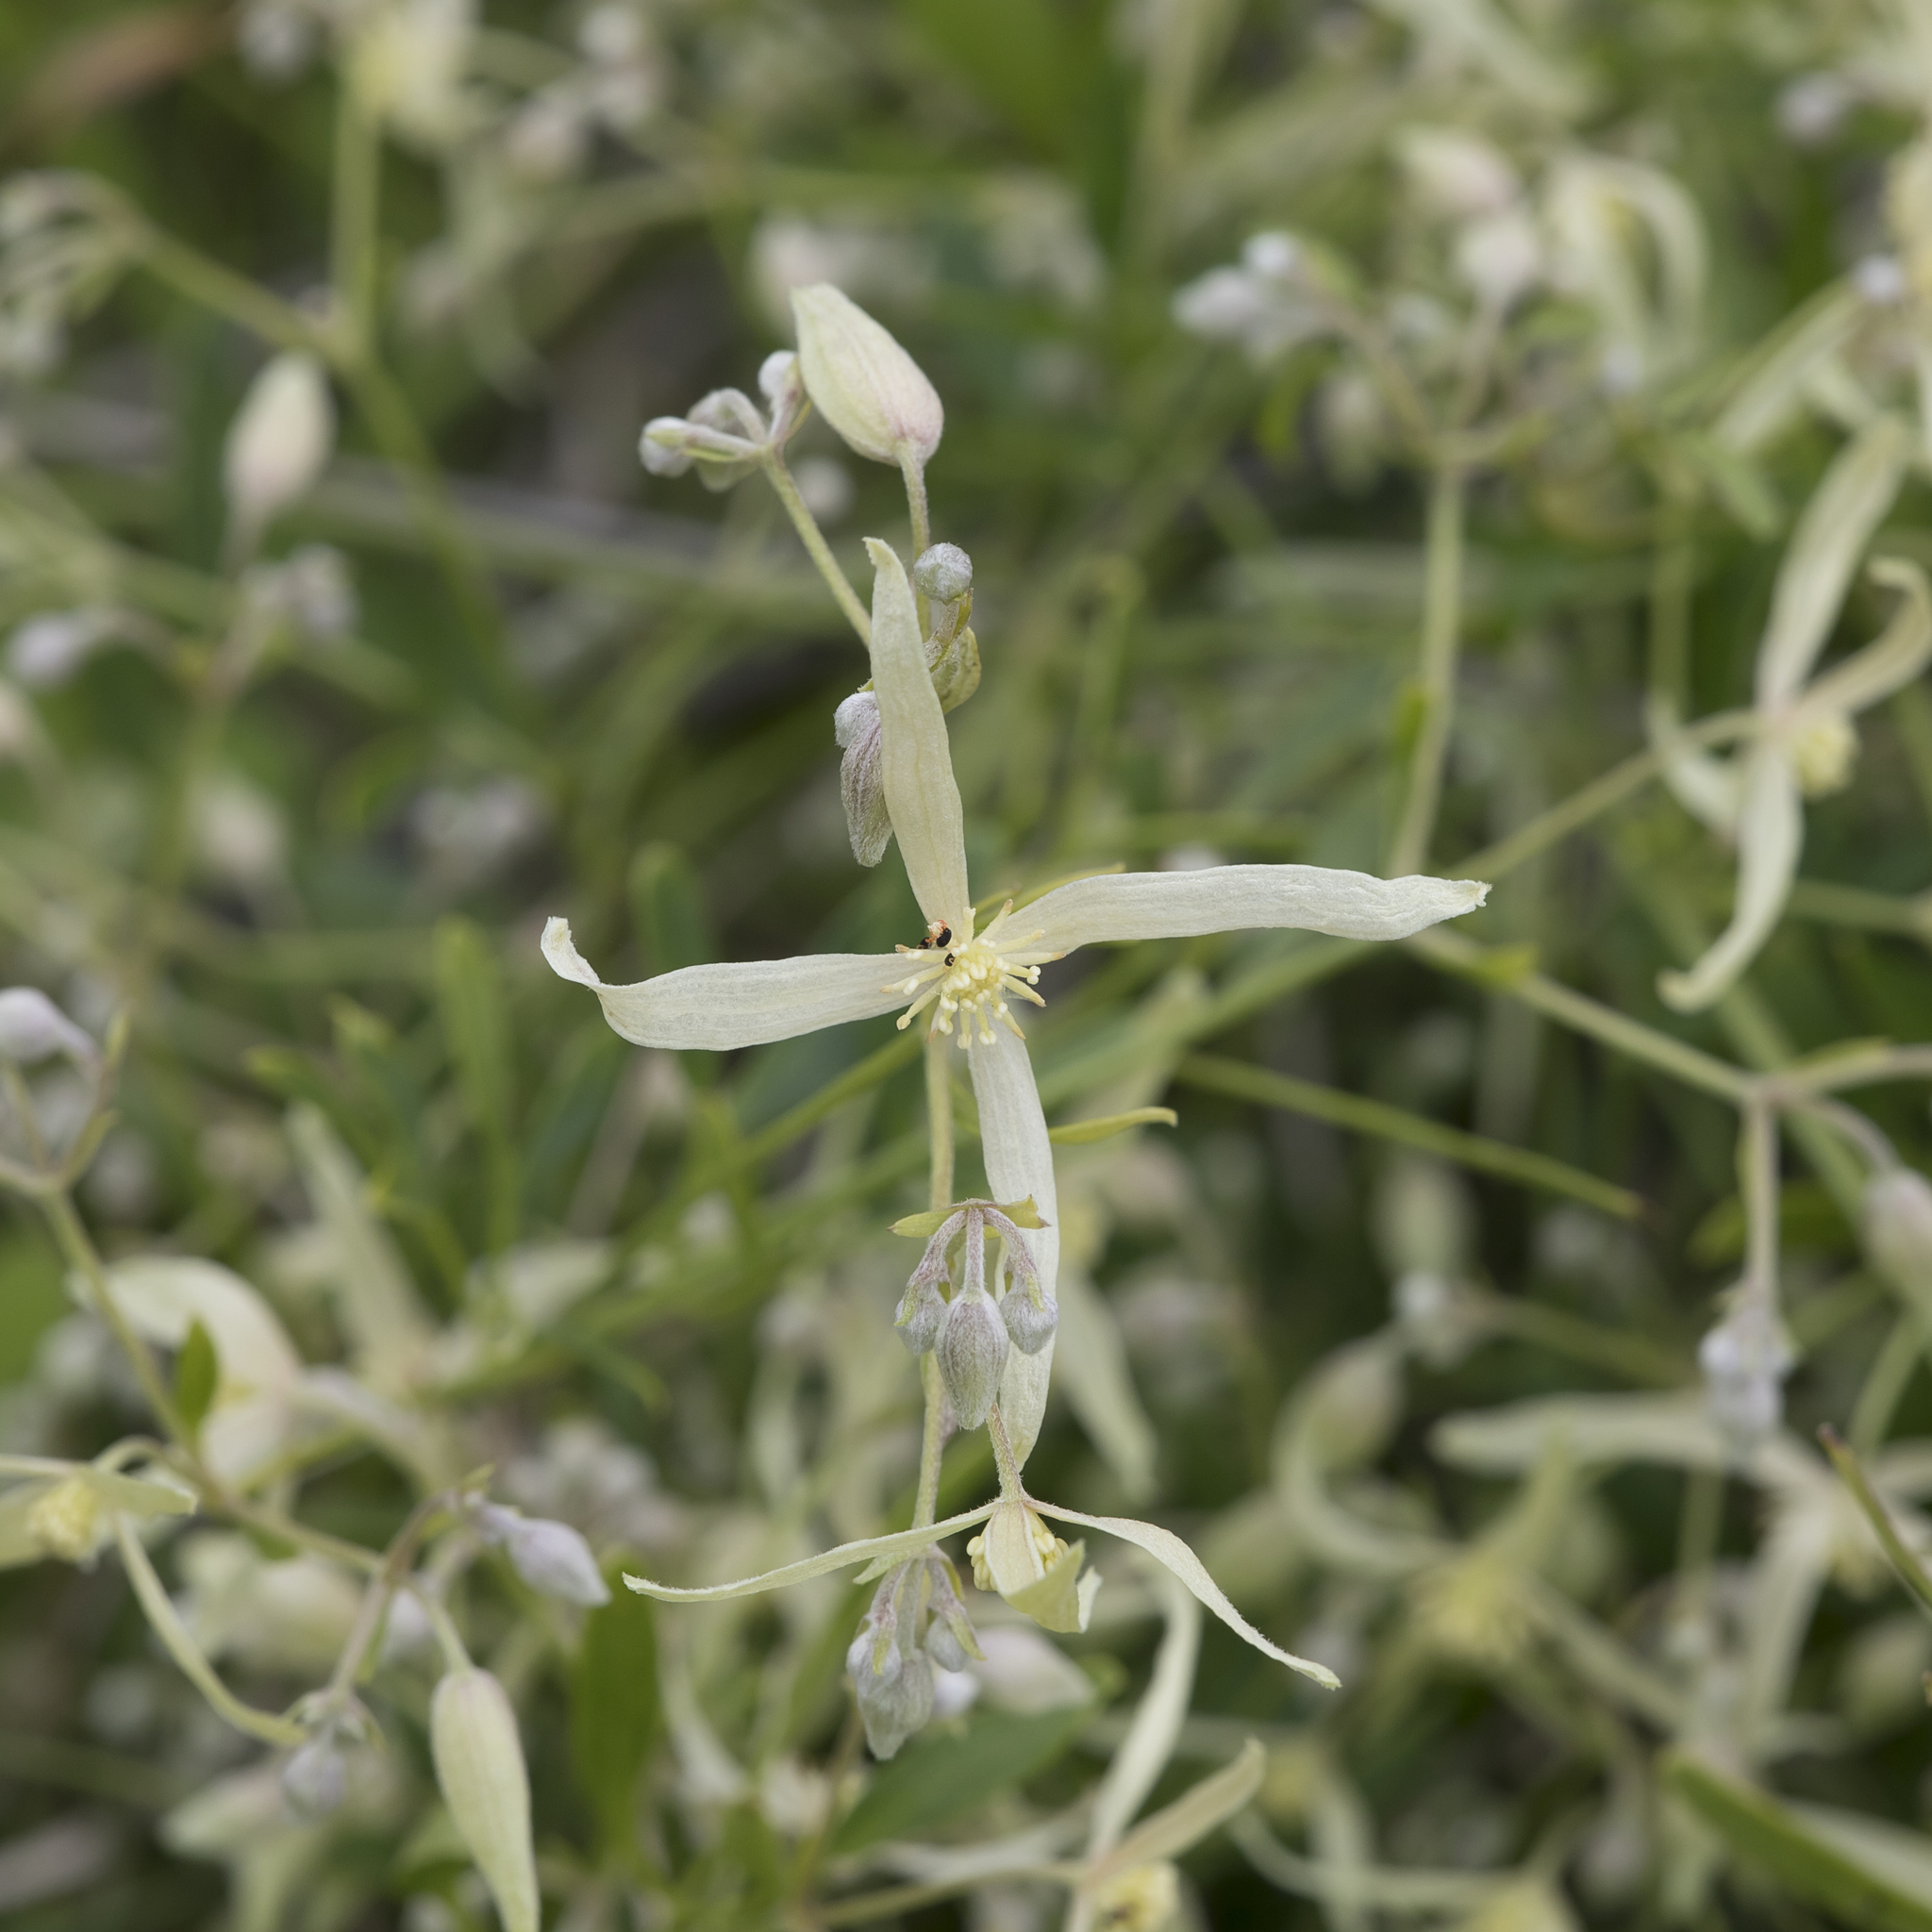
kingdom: Plantae
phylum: Tracheophyta
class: Magnoliopsida
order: Ranunculales
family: Ranunculaceae
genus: Clematis
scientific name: Clematis microphylla
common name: Headachevine
